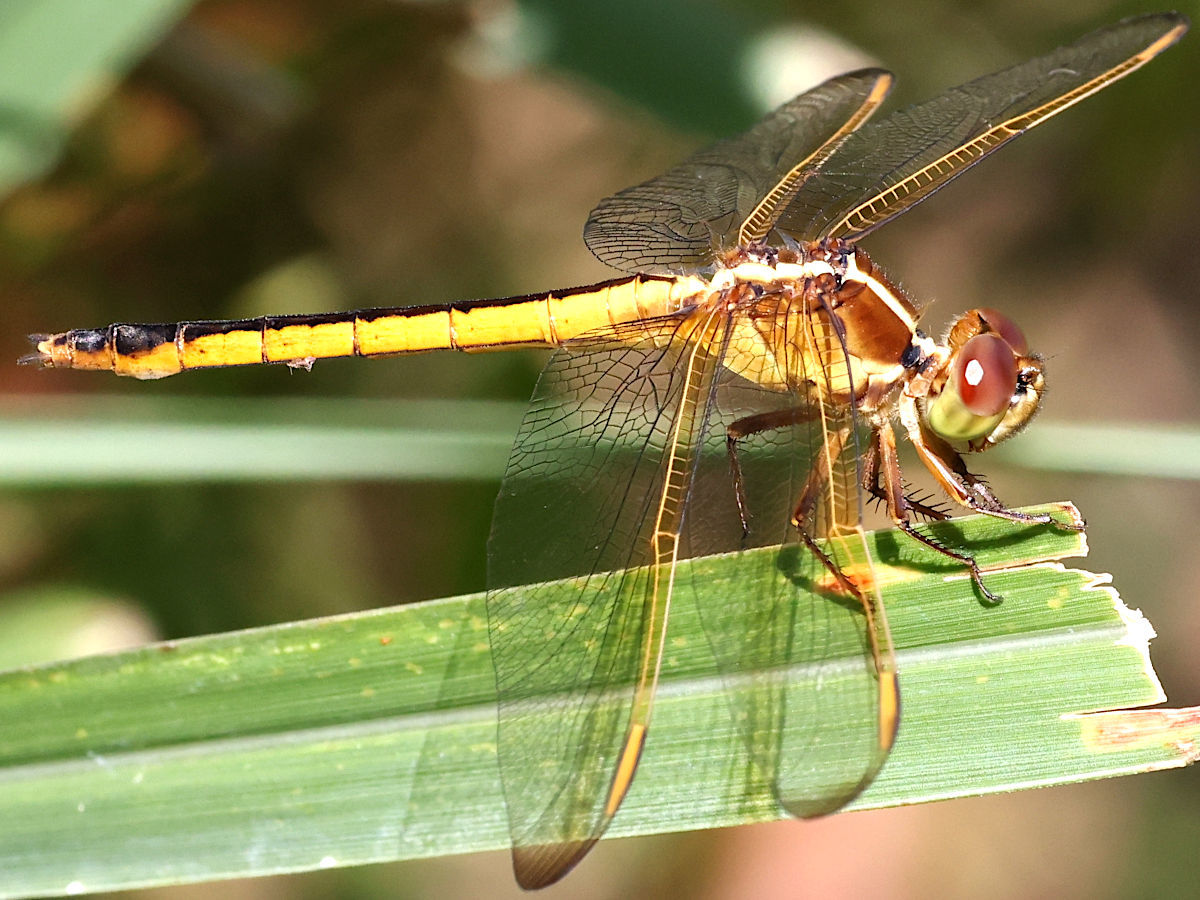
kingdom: Animalia
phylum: Arthropoda
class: Insecta
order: Odonata
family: Libellulidae
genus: Libellula
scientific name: Libellula needhami
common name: Needham's skimmer
